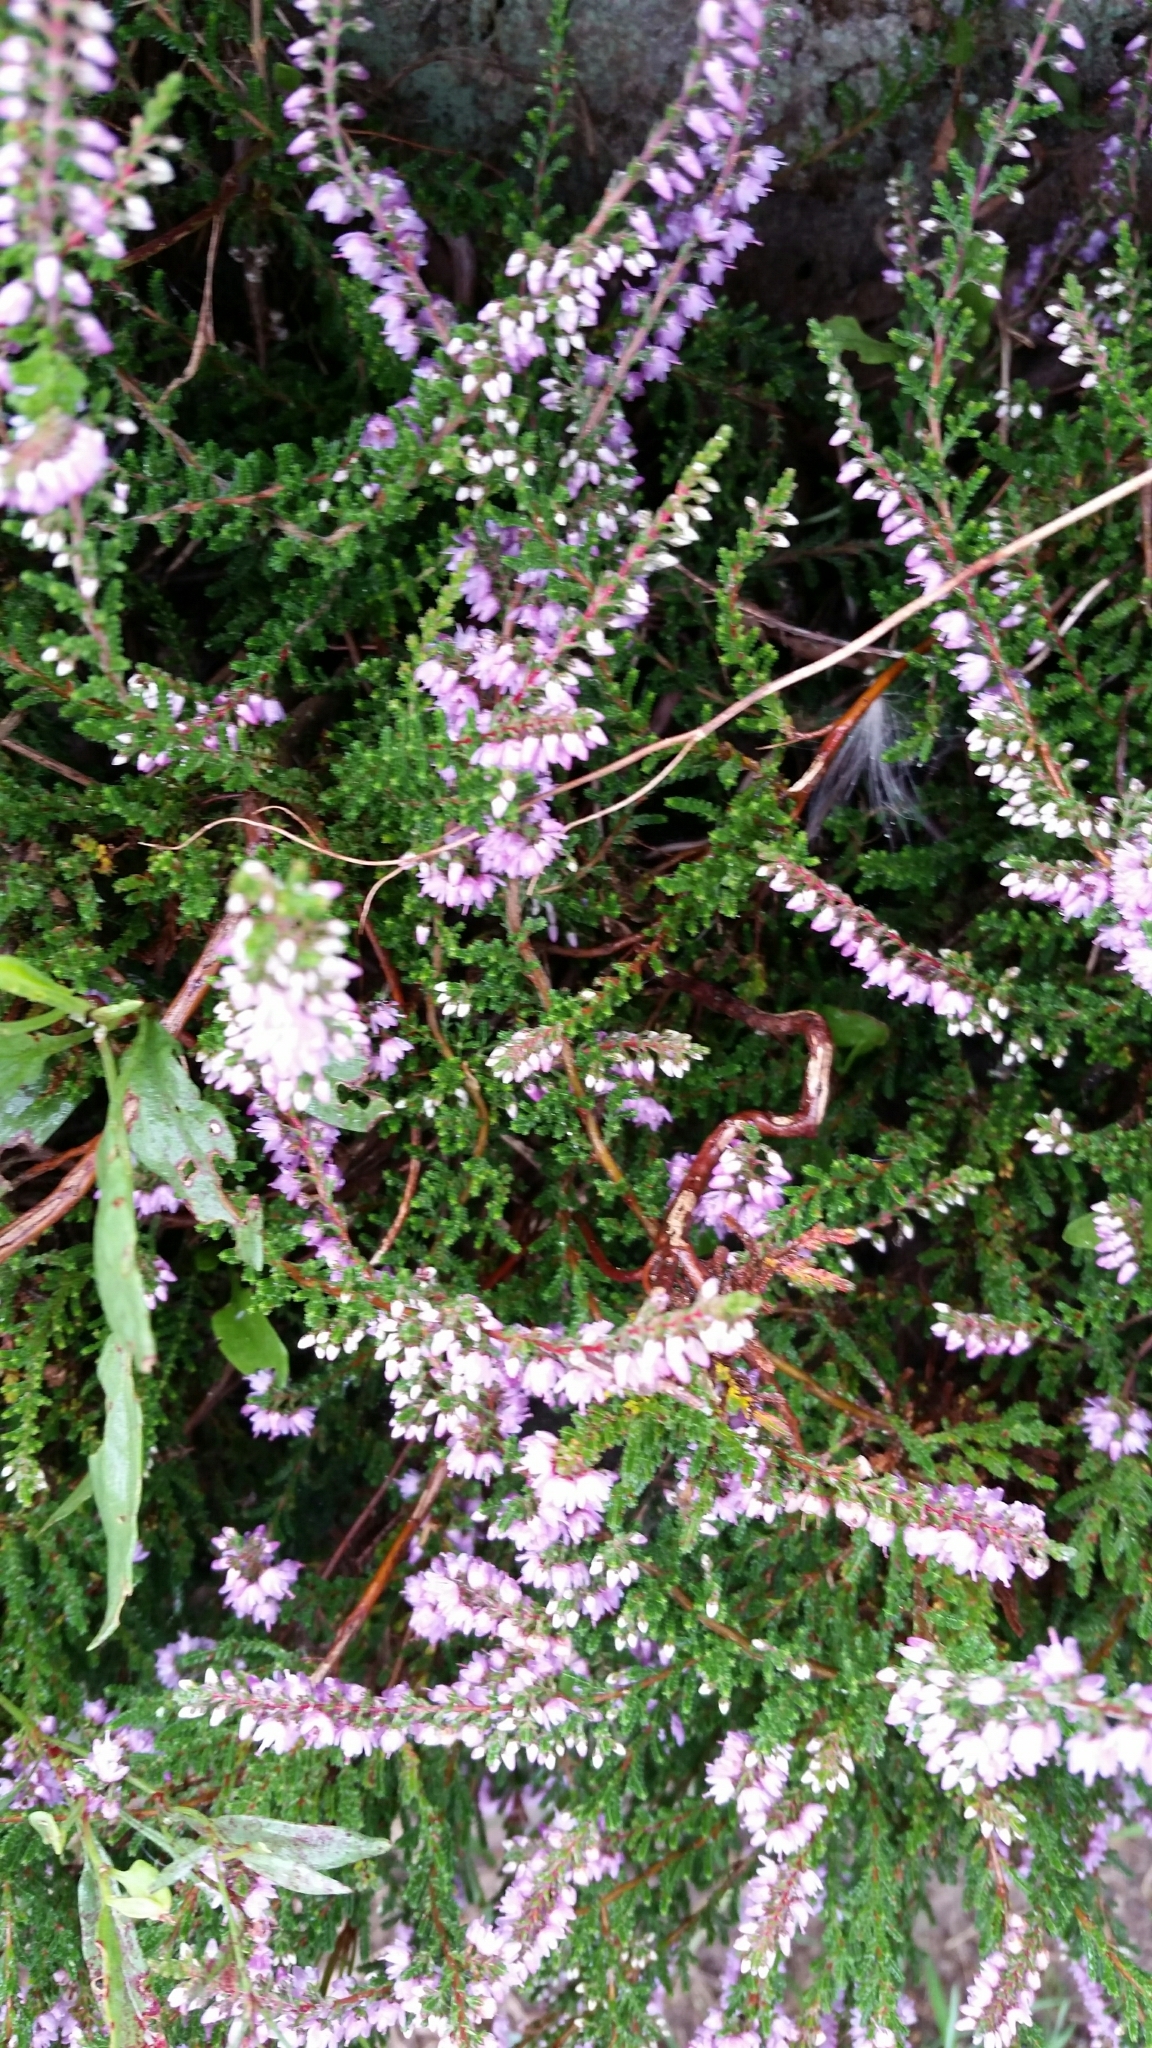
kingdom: Plantae
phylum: Tracheophyta
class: Magnoliopsida
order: Ericales
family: Ericaceae
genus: Calluna
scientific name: Calluna vulgaris
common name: Heather
